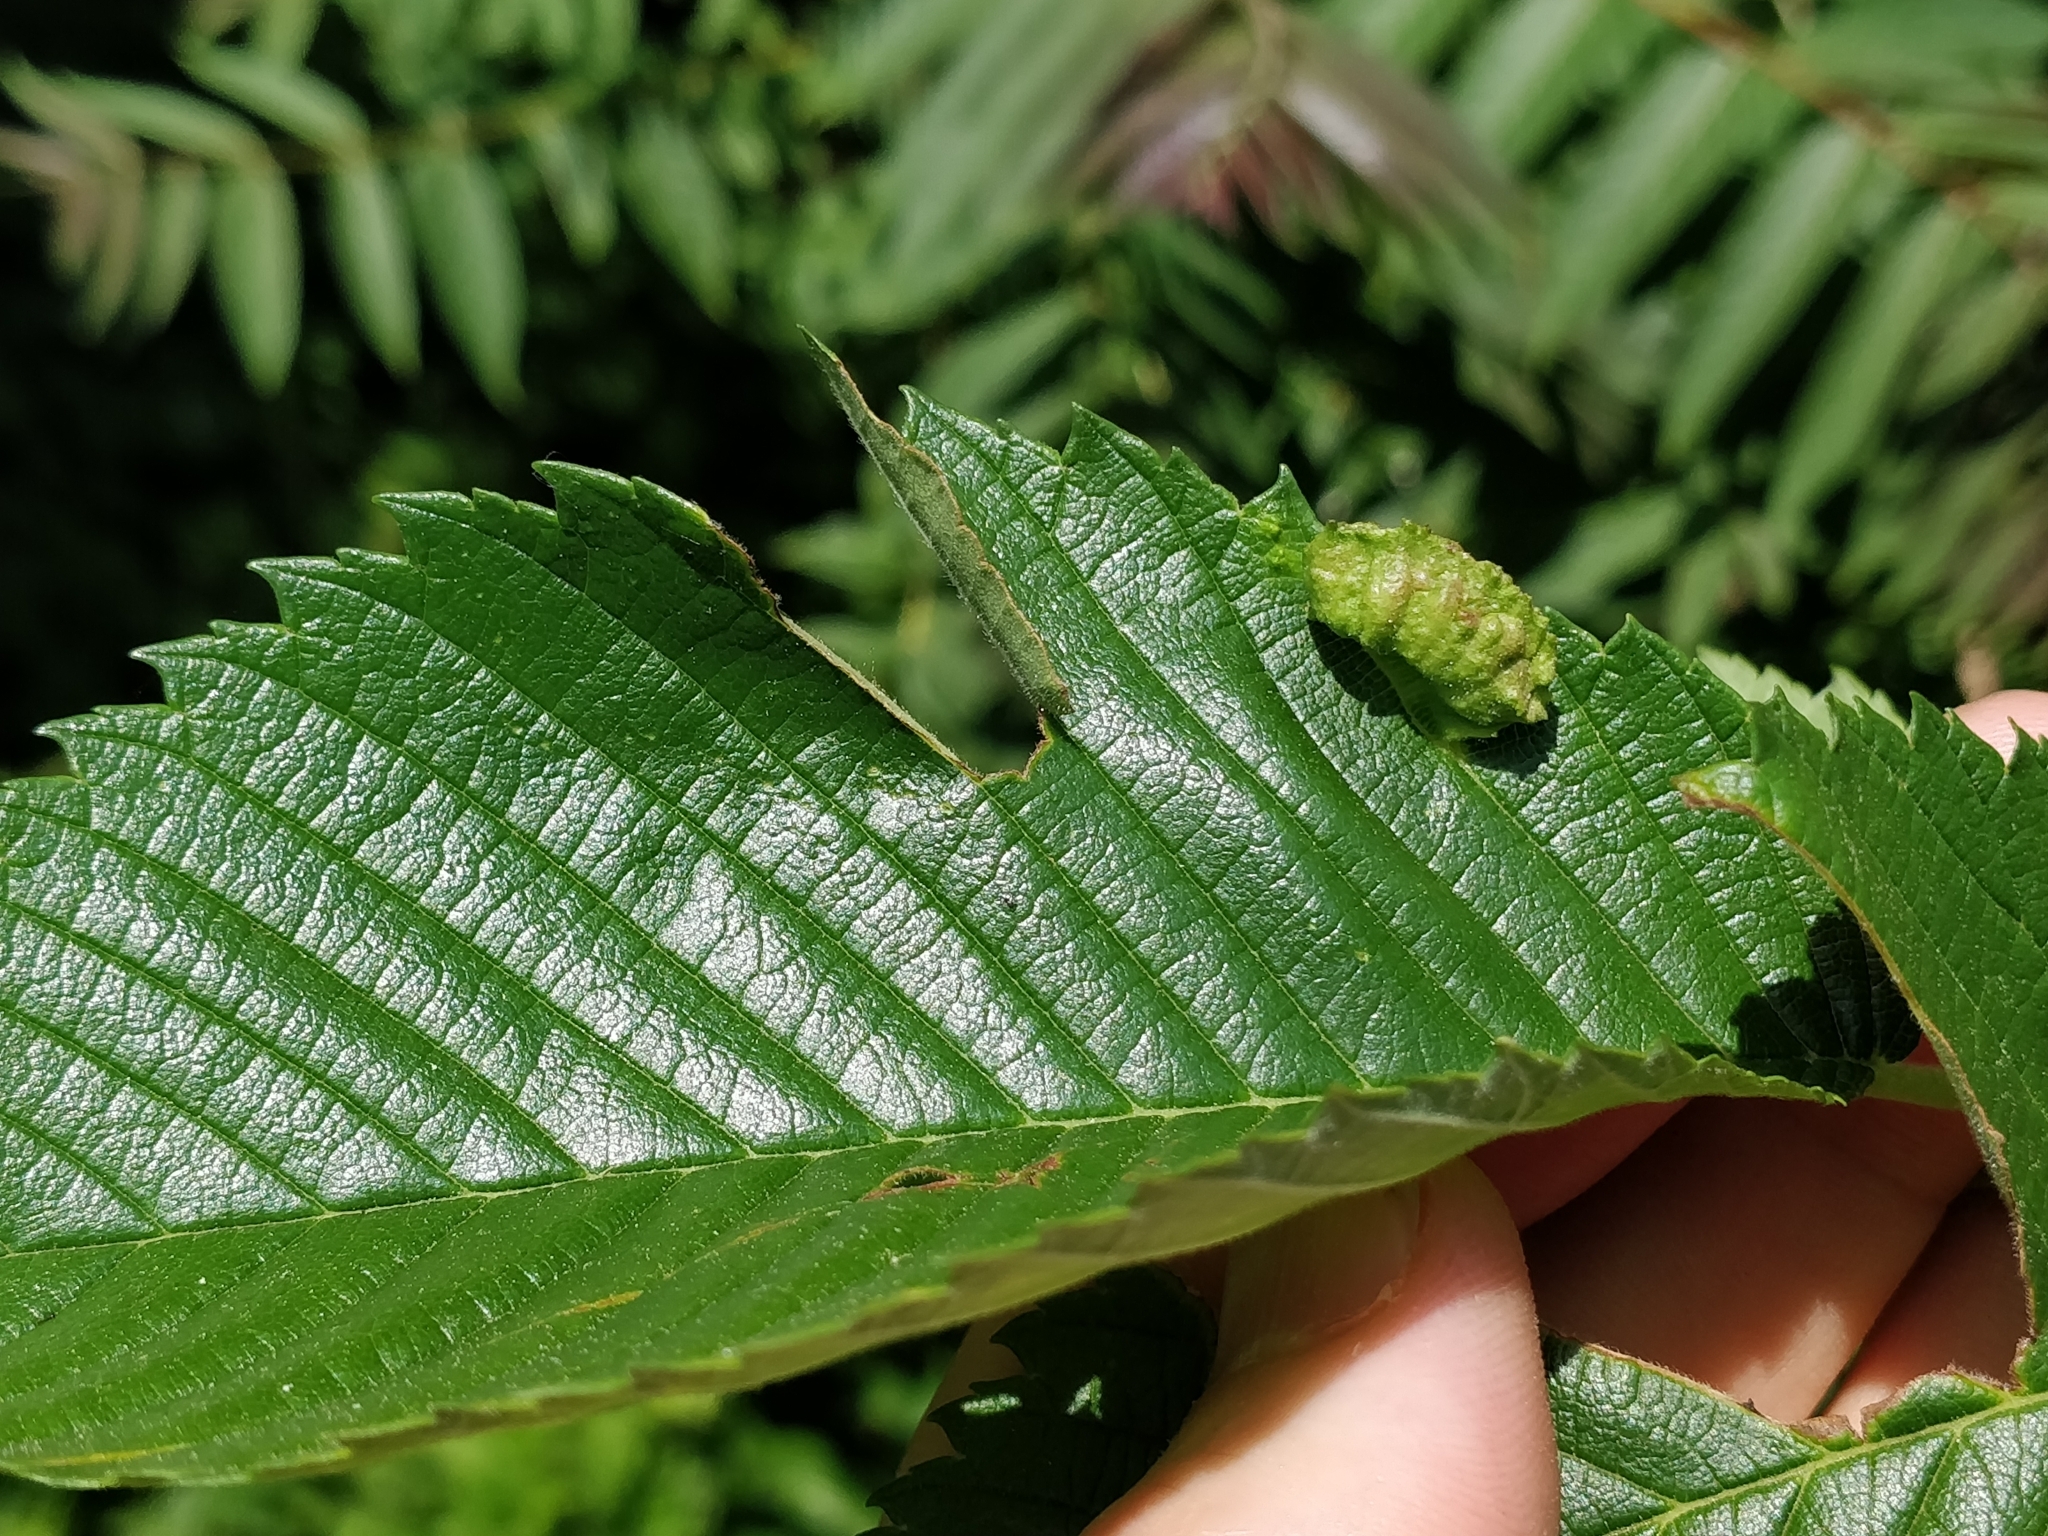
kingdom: Animalia
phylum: Arthropoda
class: Insecta
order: Hemiptera
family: Aphididae
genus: Colopha
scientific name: Colopha ulmicola
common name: Elm cockscombgall aphid
